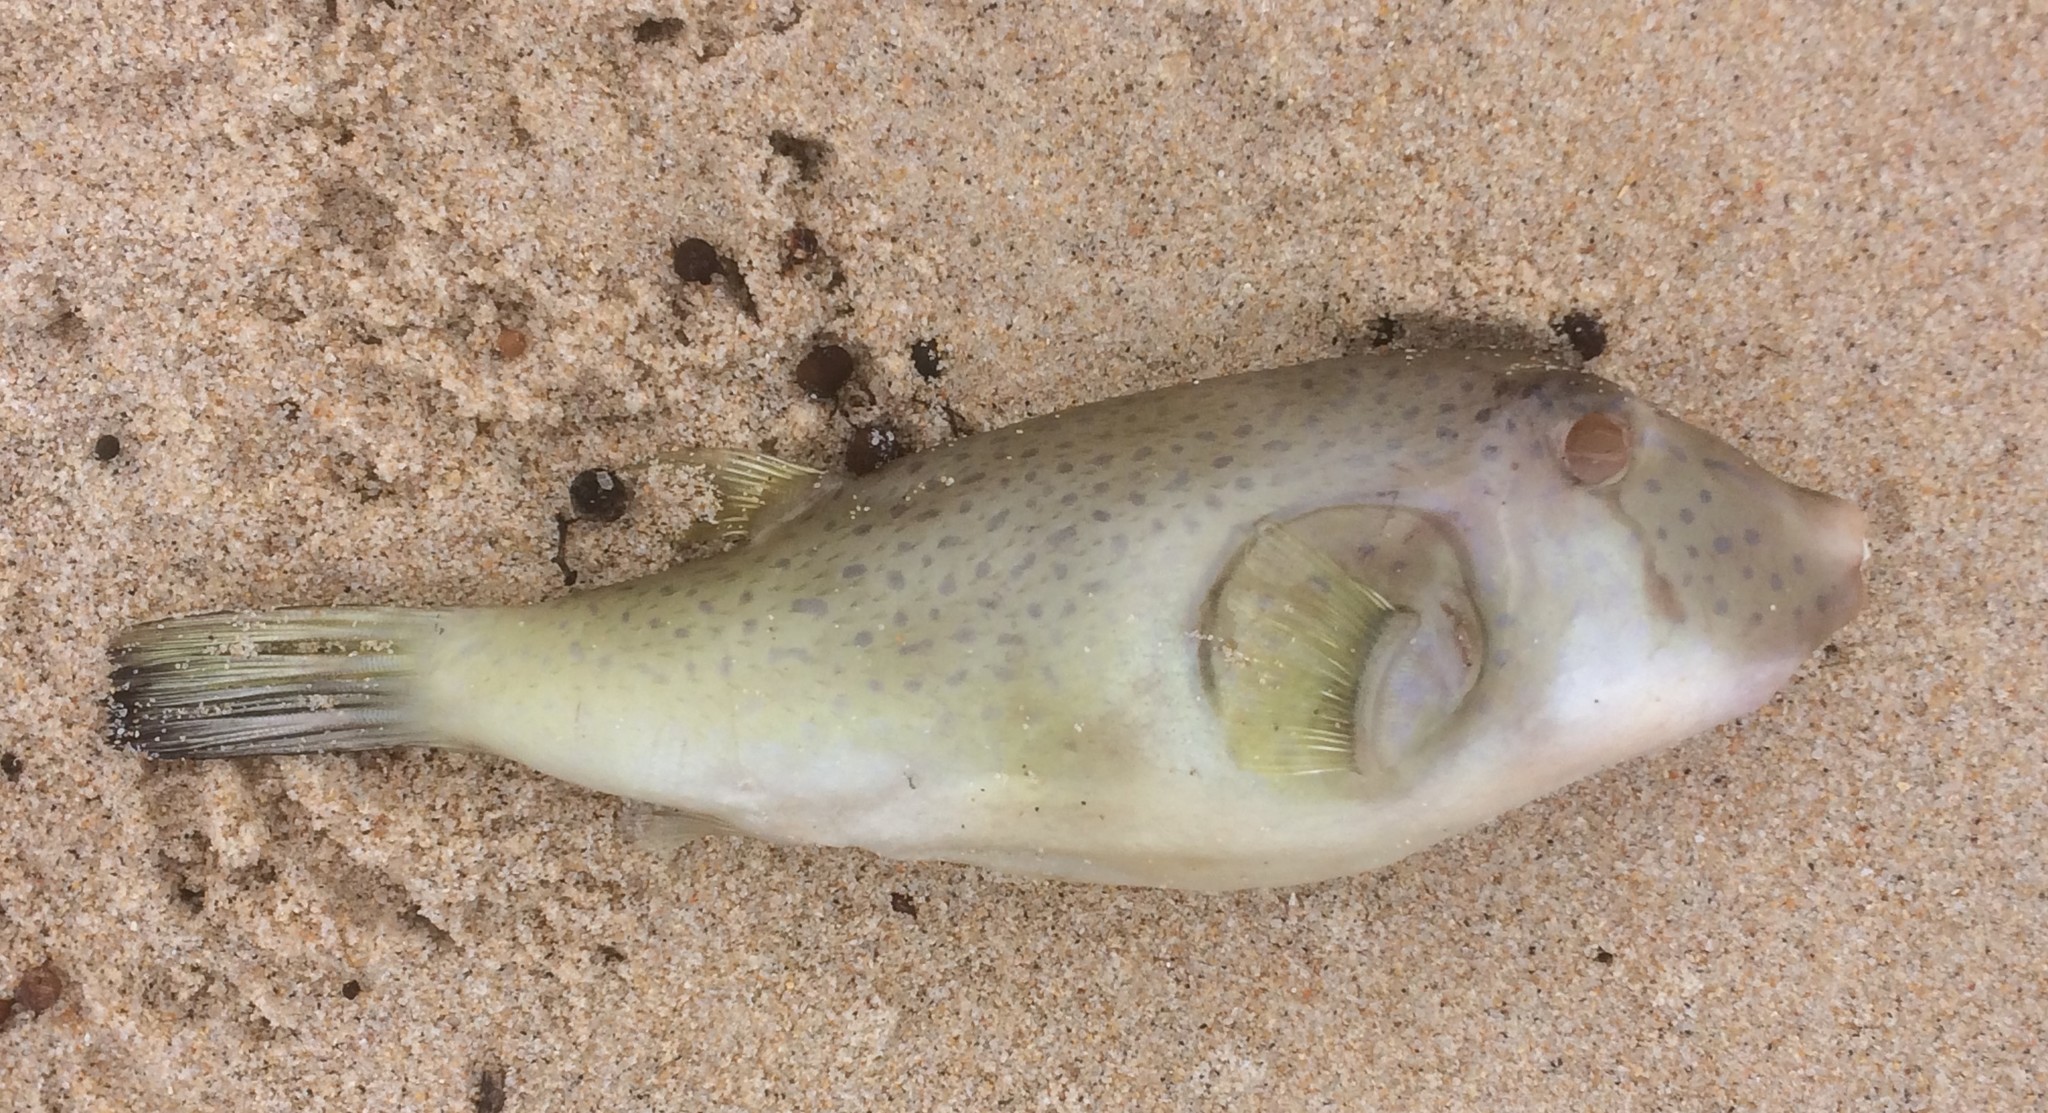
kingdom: Animalia
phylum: Chordata
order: Tetraodontiformes
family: Tetraodontidae
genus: Omegophora
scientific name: Omegophora armilla
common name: Ringed pufferfish
